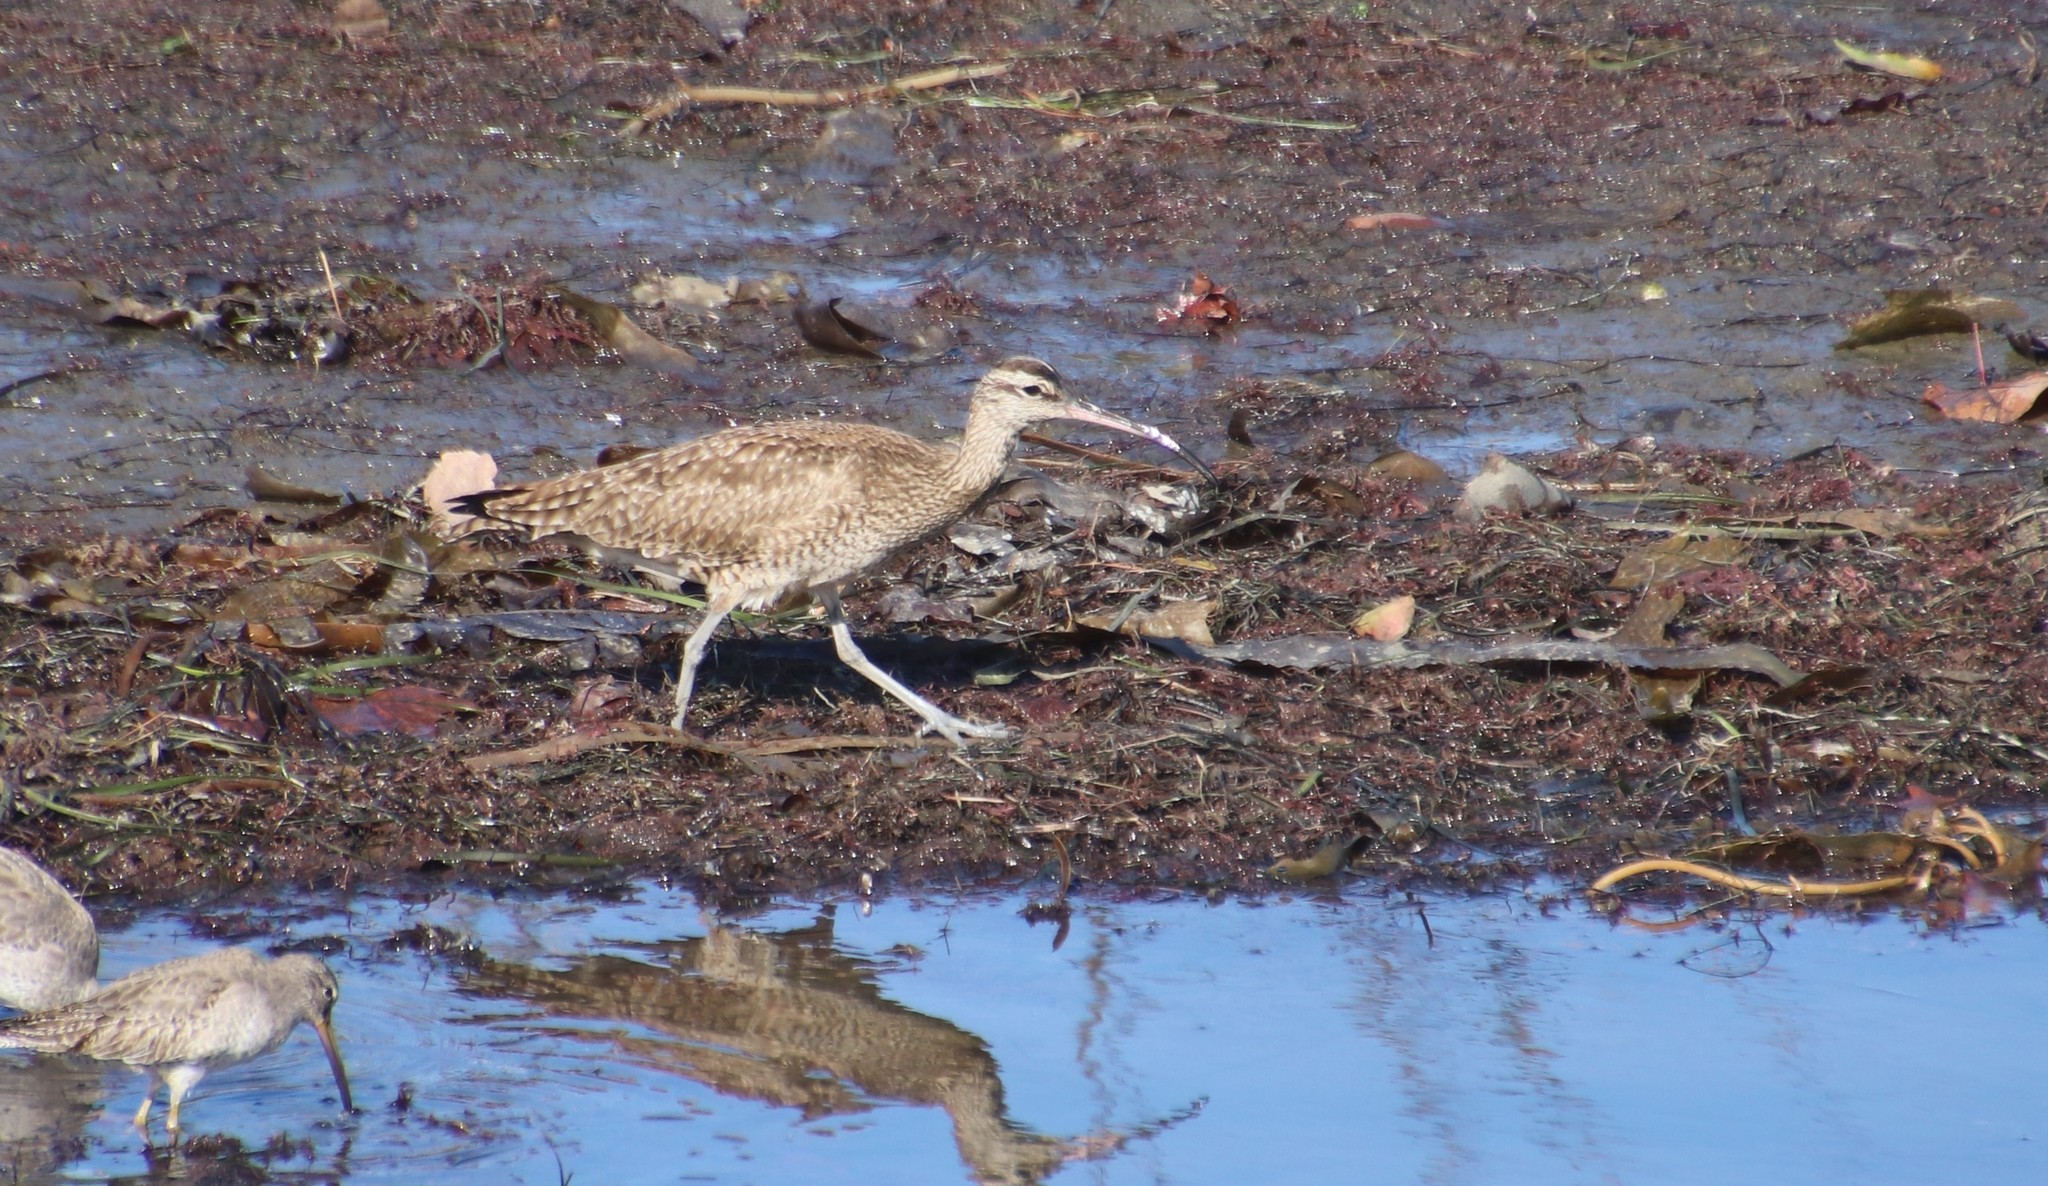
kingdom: Animalia
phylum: Chordata
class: Aves
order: Charadriiformes
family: Scolopacidae
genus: Numenius
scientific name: Numenius phaeopus
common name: Whimbrel
